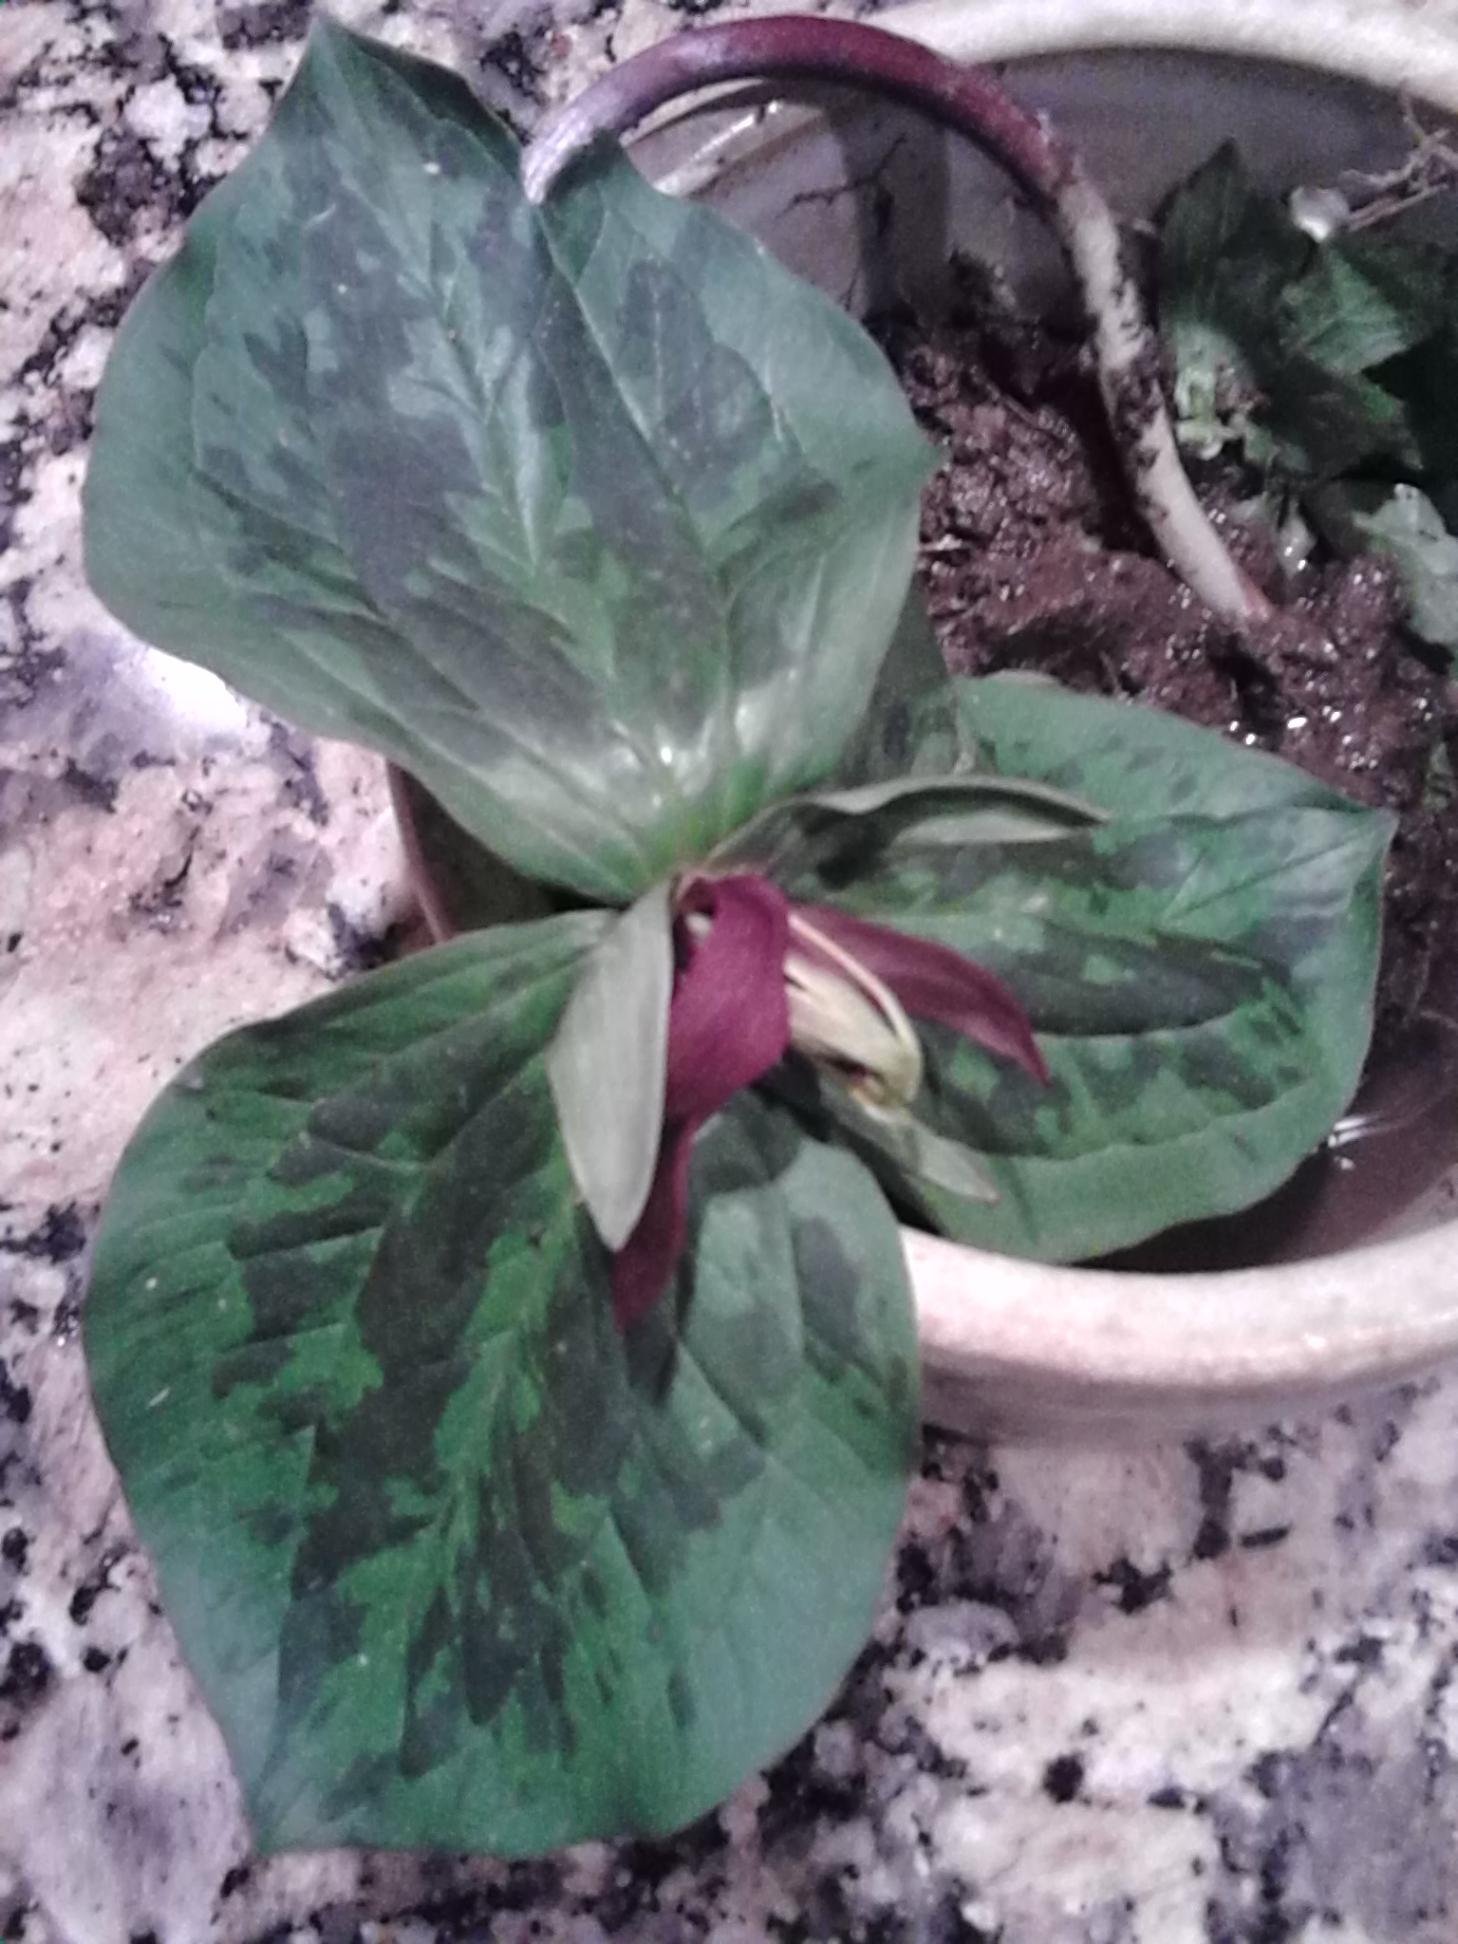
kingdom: Plantae
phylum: Tracheophyta
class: Liliopsida
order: Liliales
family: Melanthiaceae
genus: Trillium
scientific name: Trillium sessile
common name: Sessile trillium
